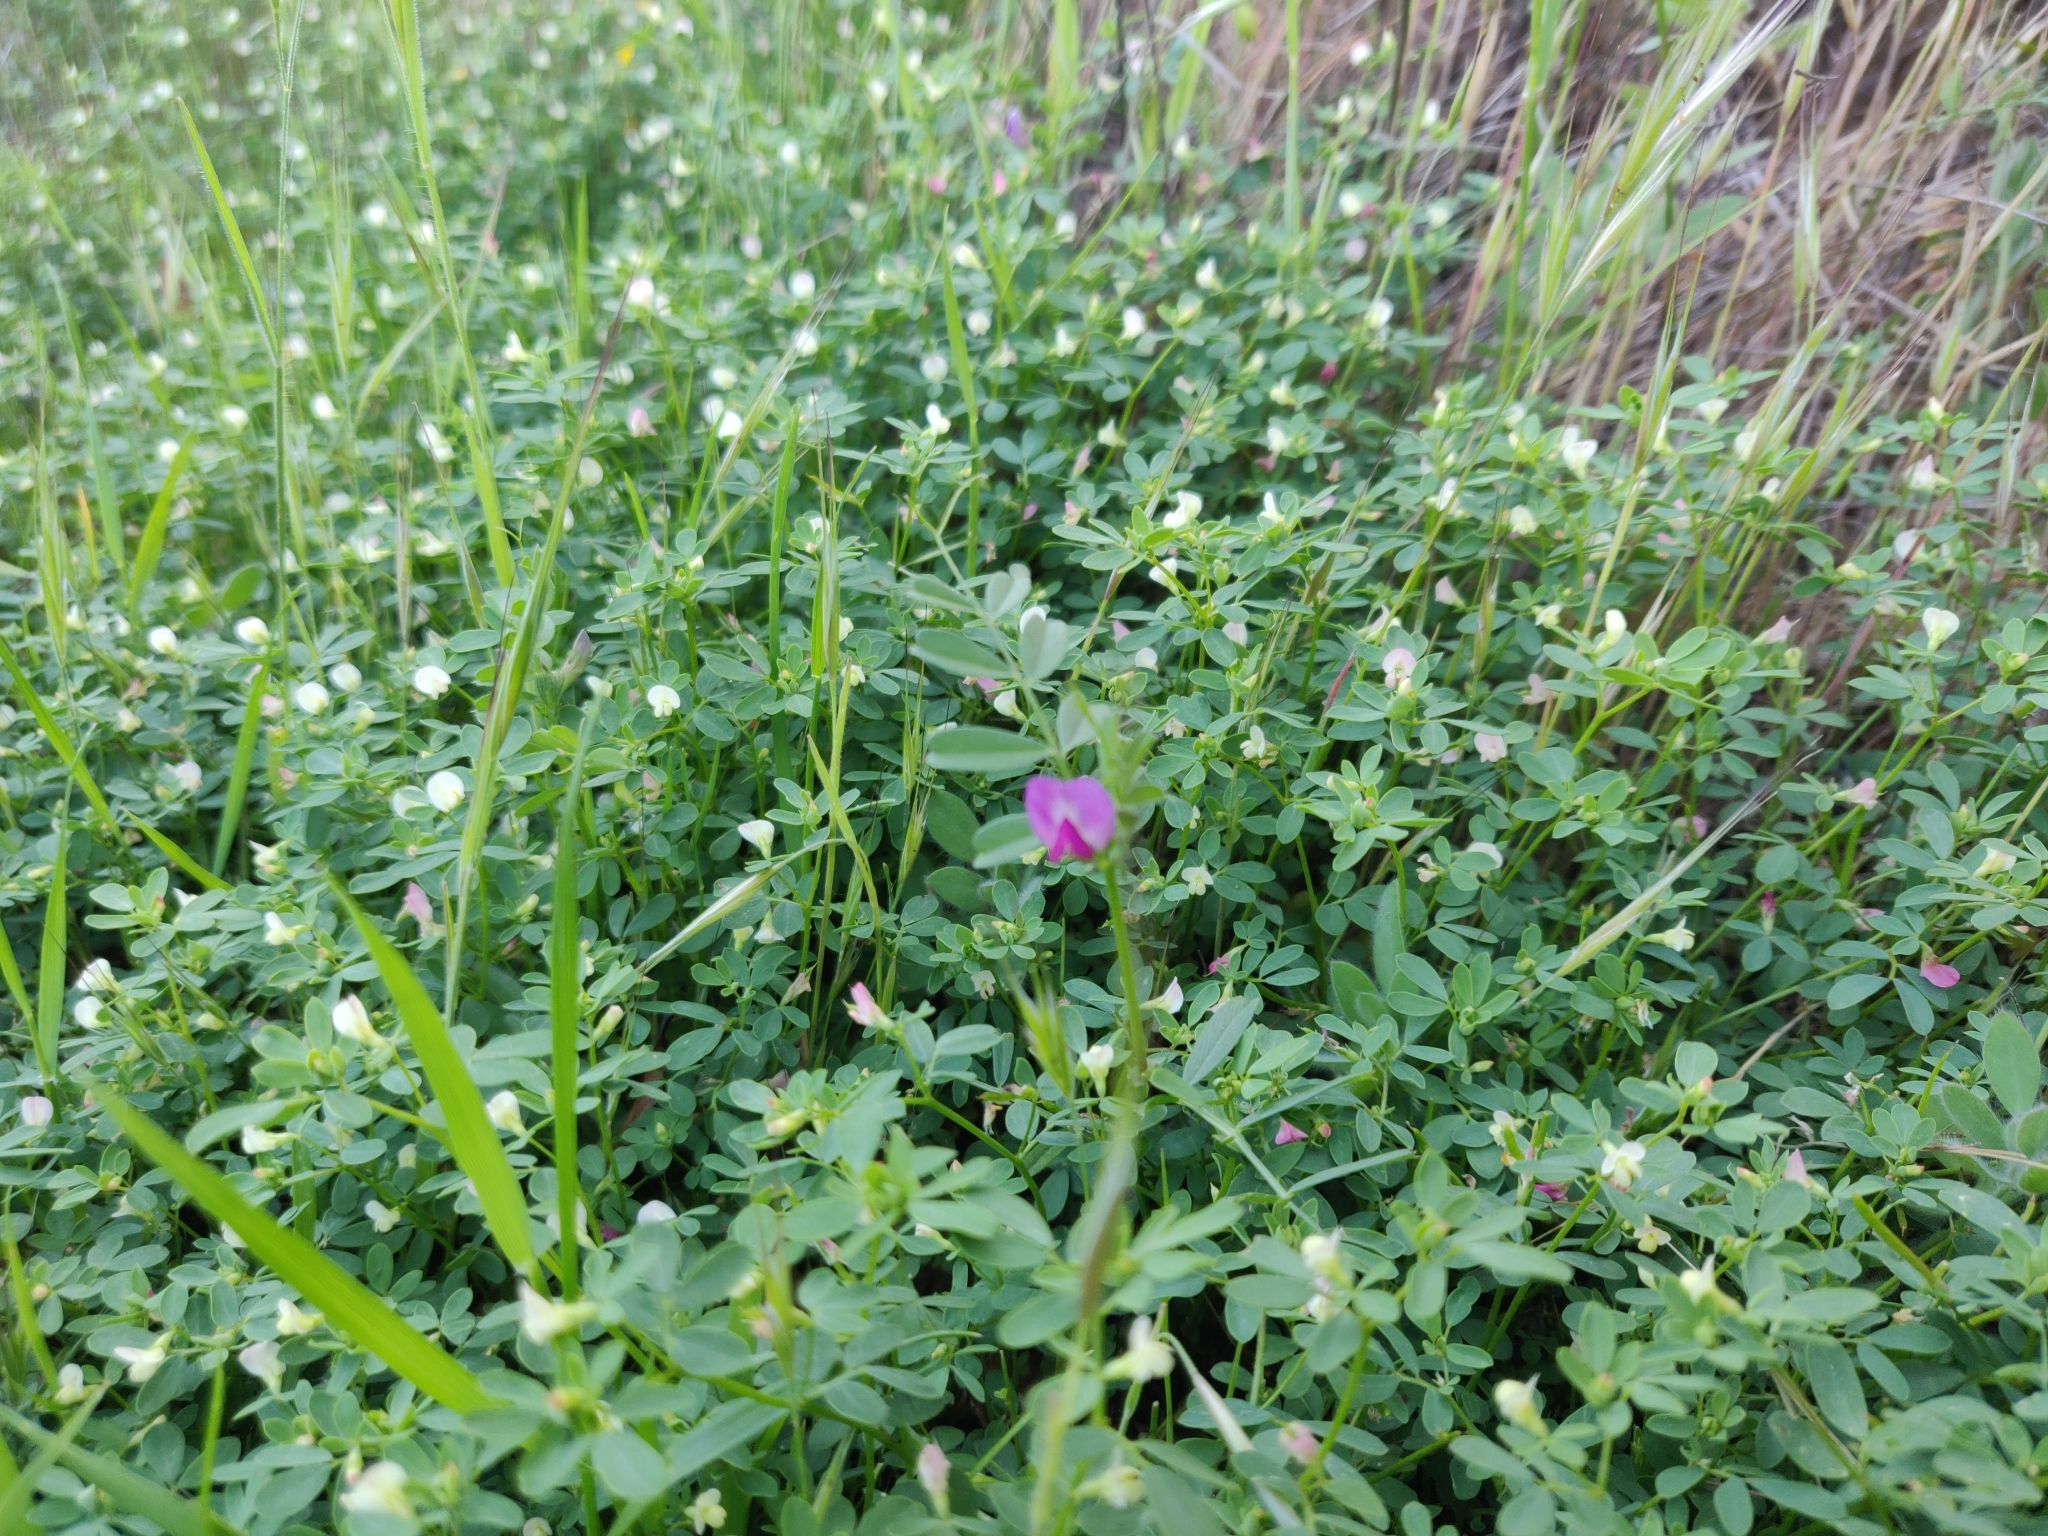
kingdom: Plantae
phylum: Tracheophyta
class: Magnoliopsida
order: Fabales
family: Fabaceae
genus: Acmispon
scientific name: Acmispon parviflorus
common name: Desert deer-vetch
